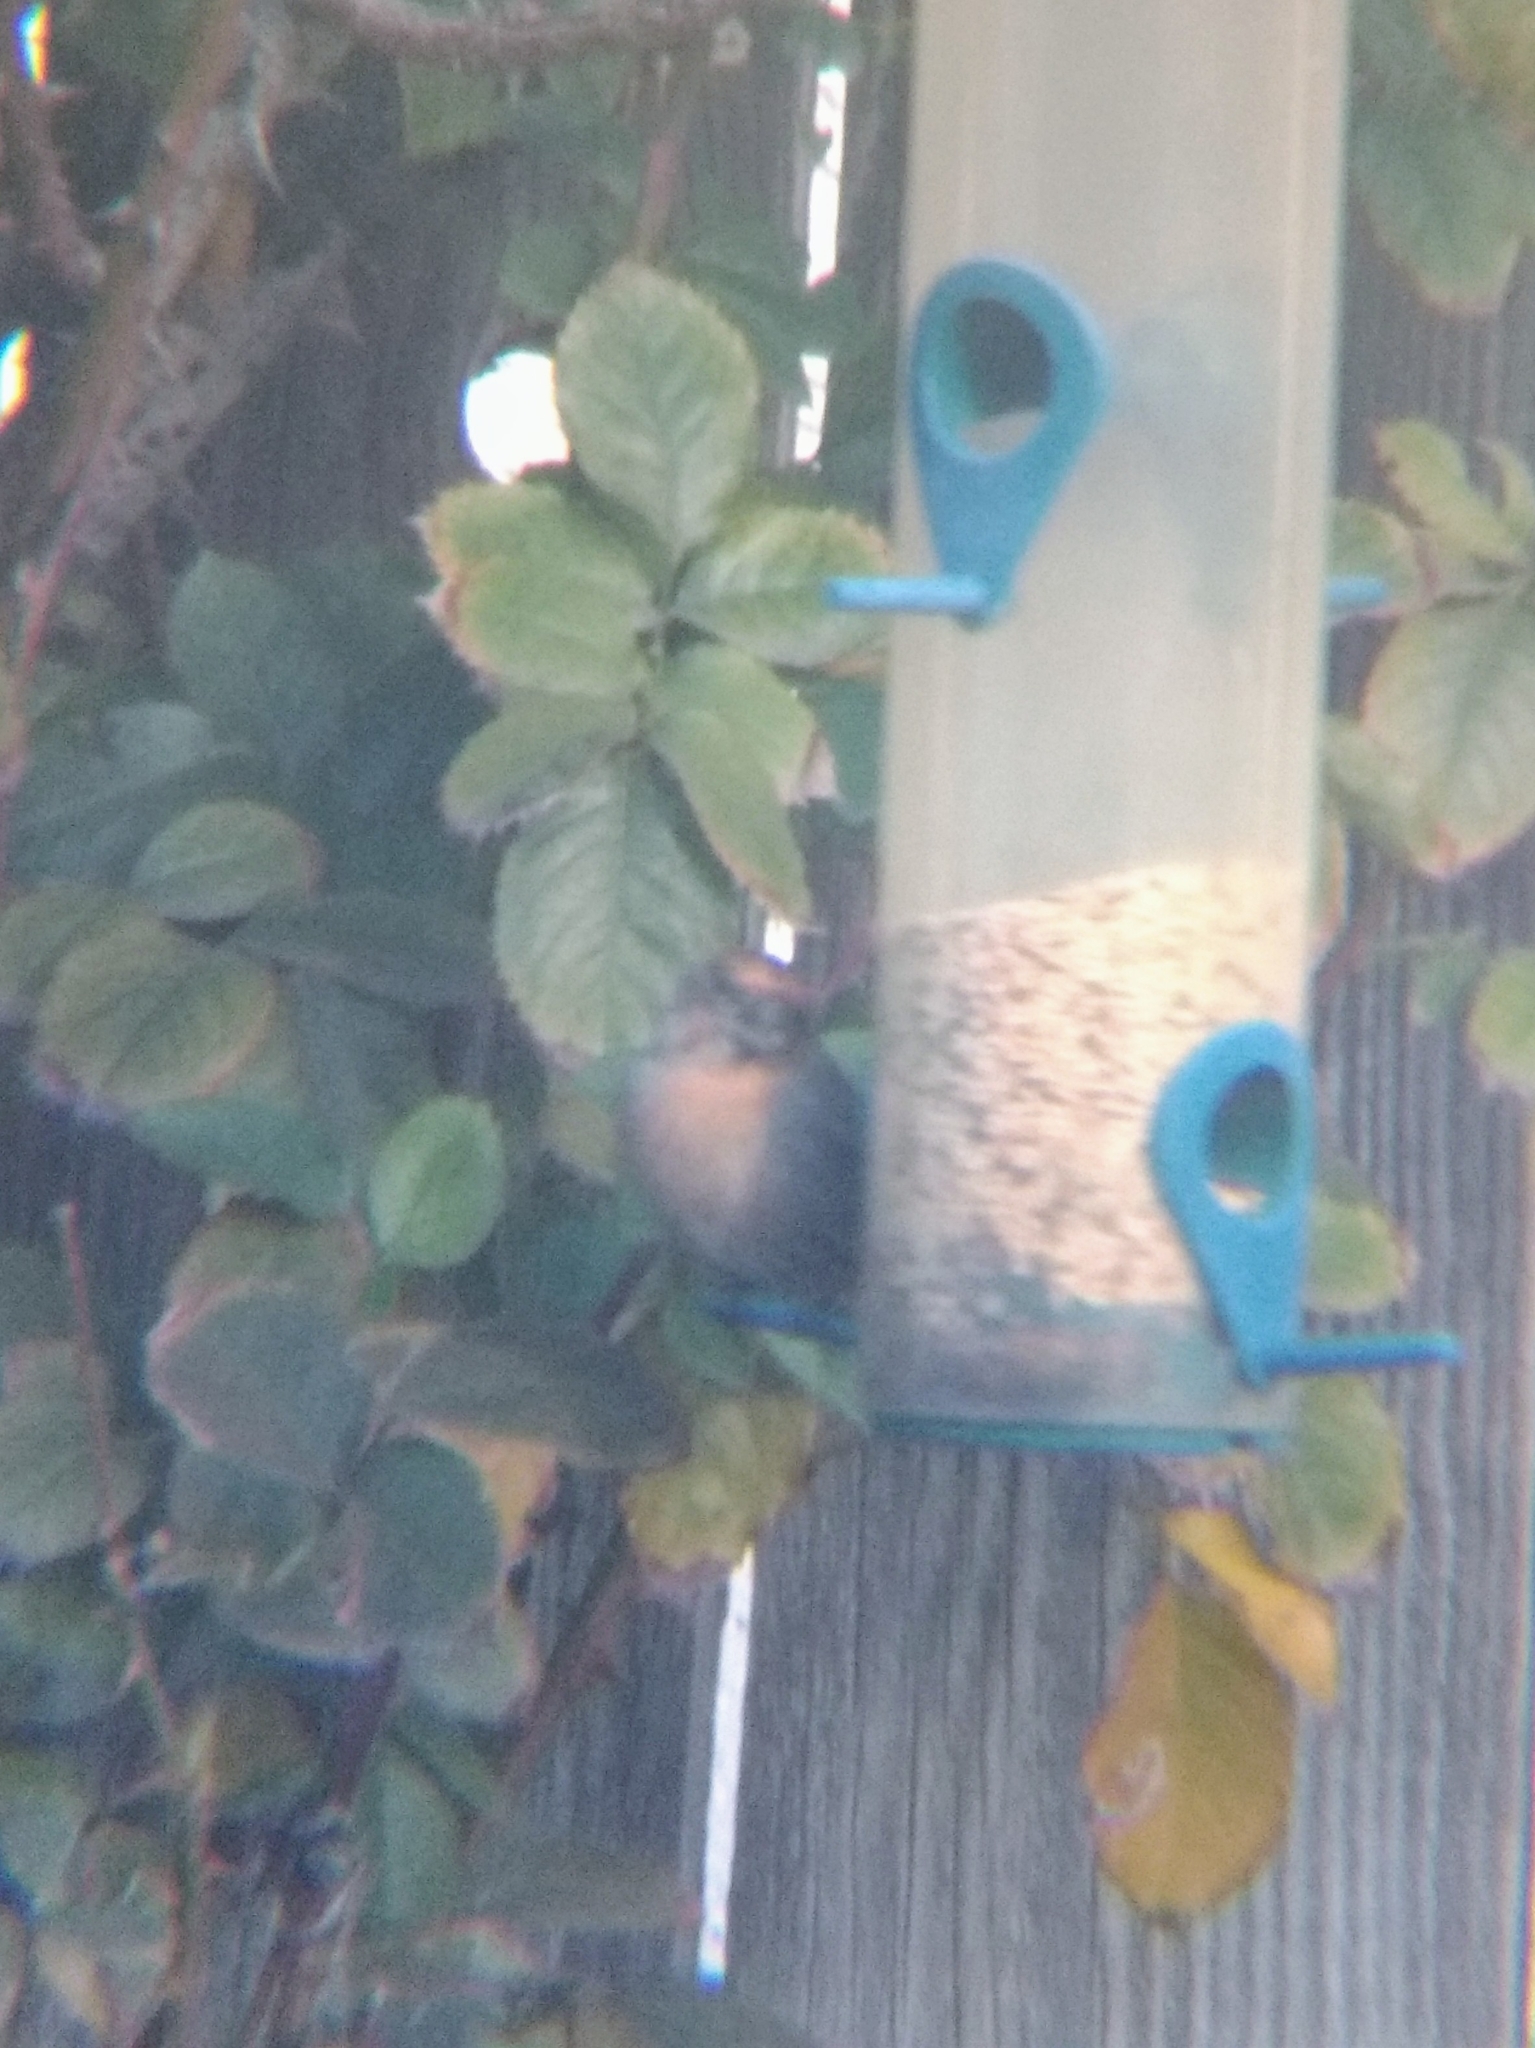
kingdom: Animalia
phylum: Chordata
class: Aves
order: Passeriformes
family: Fringillidae
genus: Haemorhous
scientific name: Haemorhous mexicanus
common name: House finch
